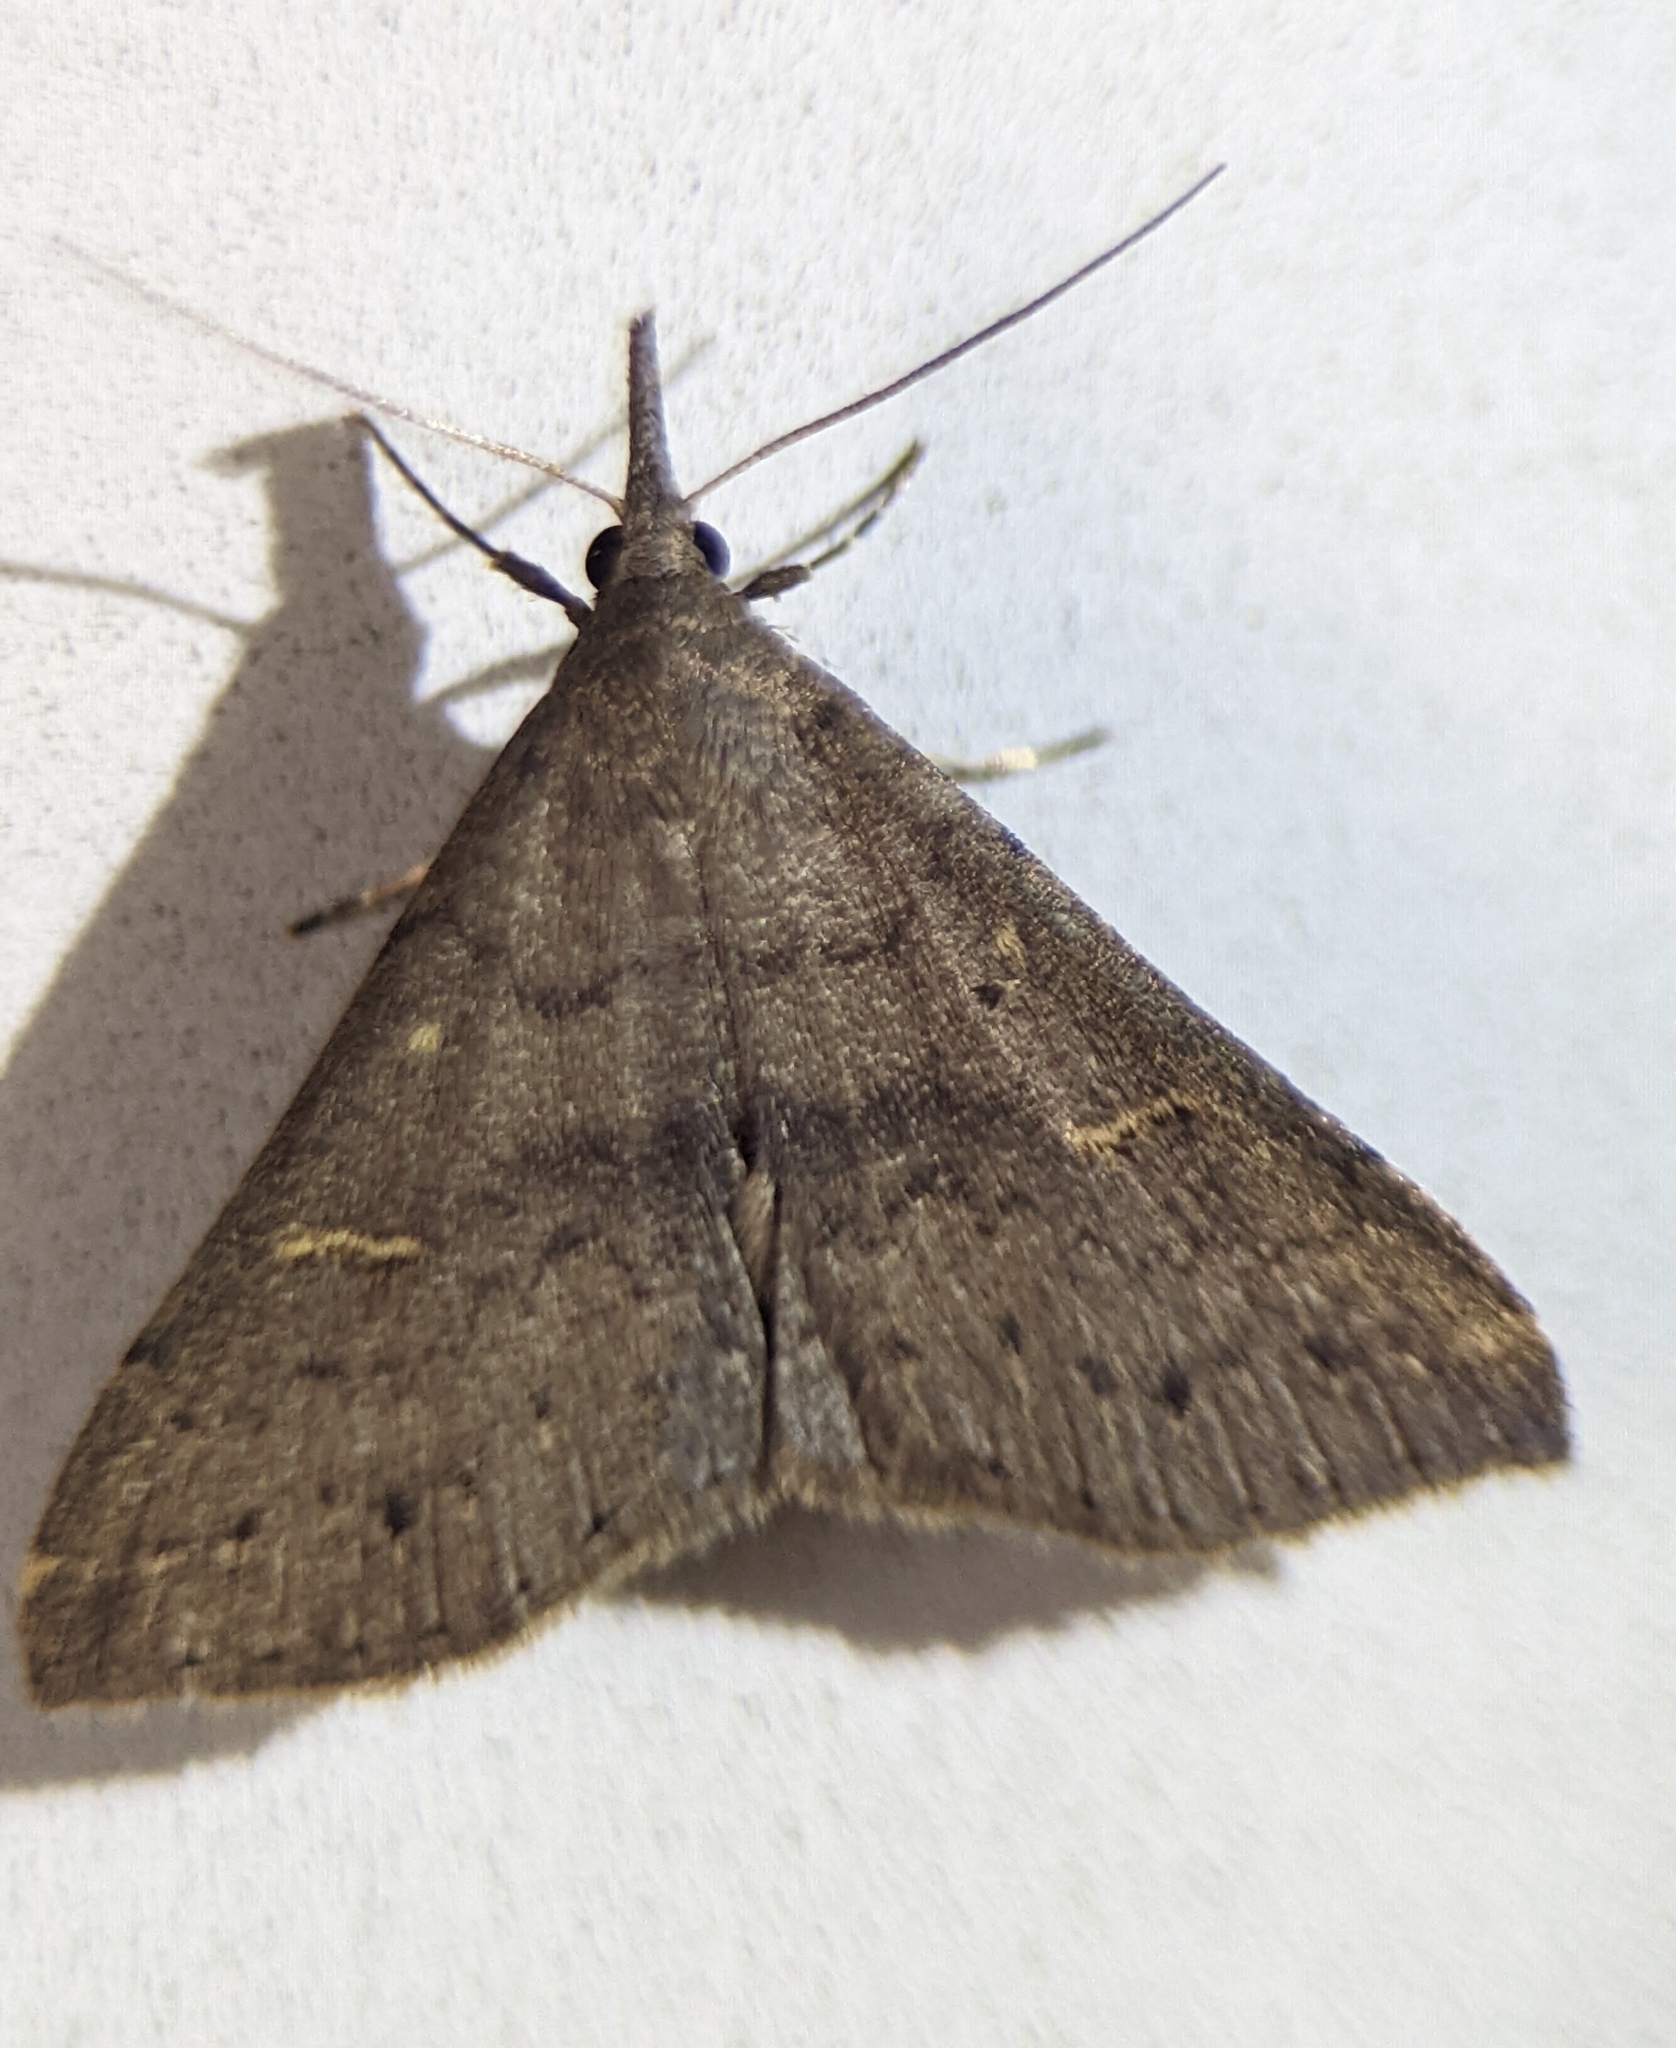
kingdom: Animalia
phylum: Arthropoda
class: Insecta
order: Lepidoptera
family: Erebidae
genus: Renia
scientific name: Renia adspergillus
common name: Speckled renia moth
